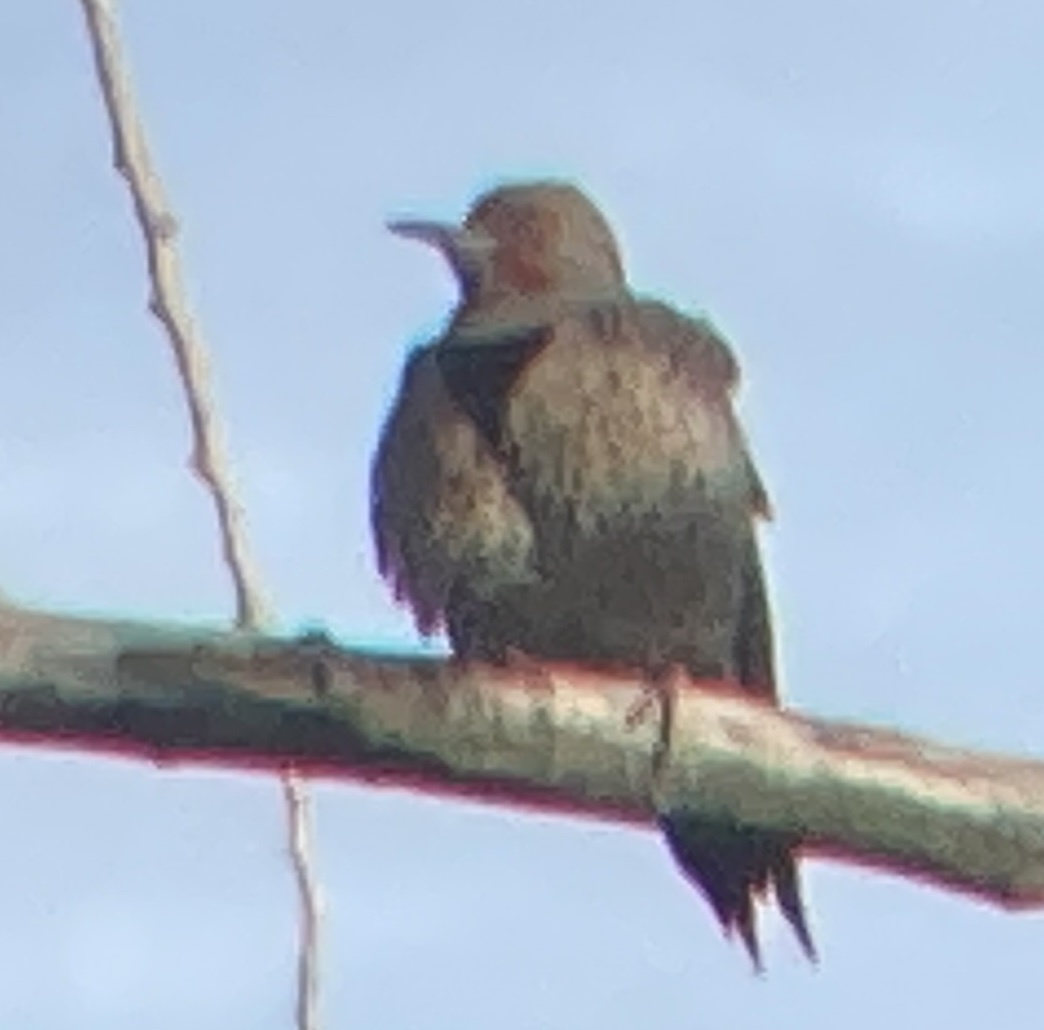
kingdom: Animalia
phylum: Chordata
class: Aves
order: Piciformes
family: Picidae
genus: Colaptes
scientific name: Colaptes
